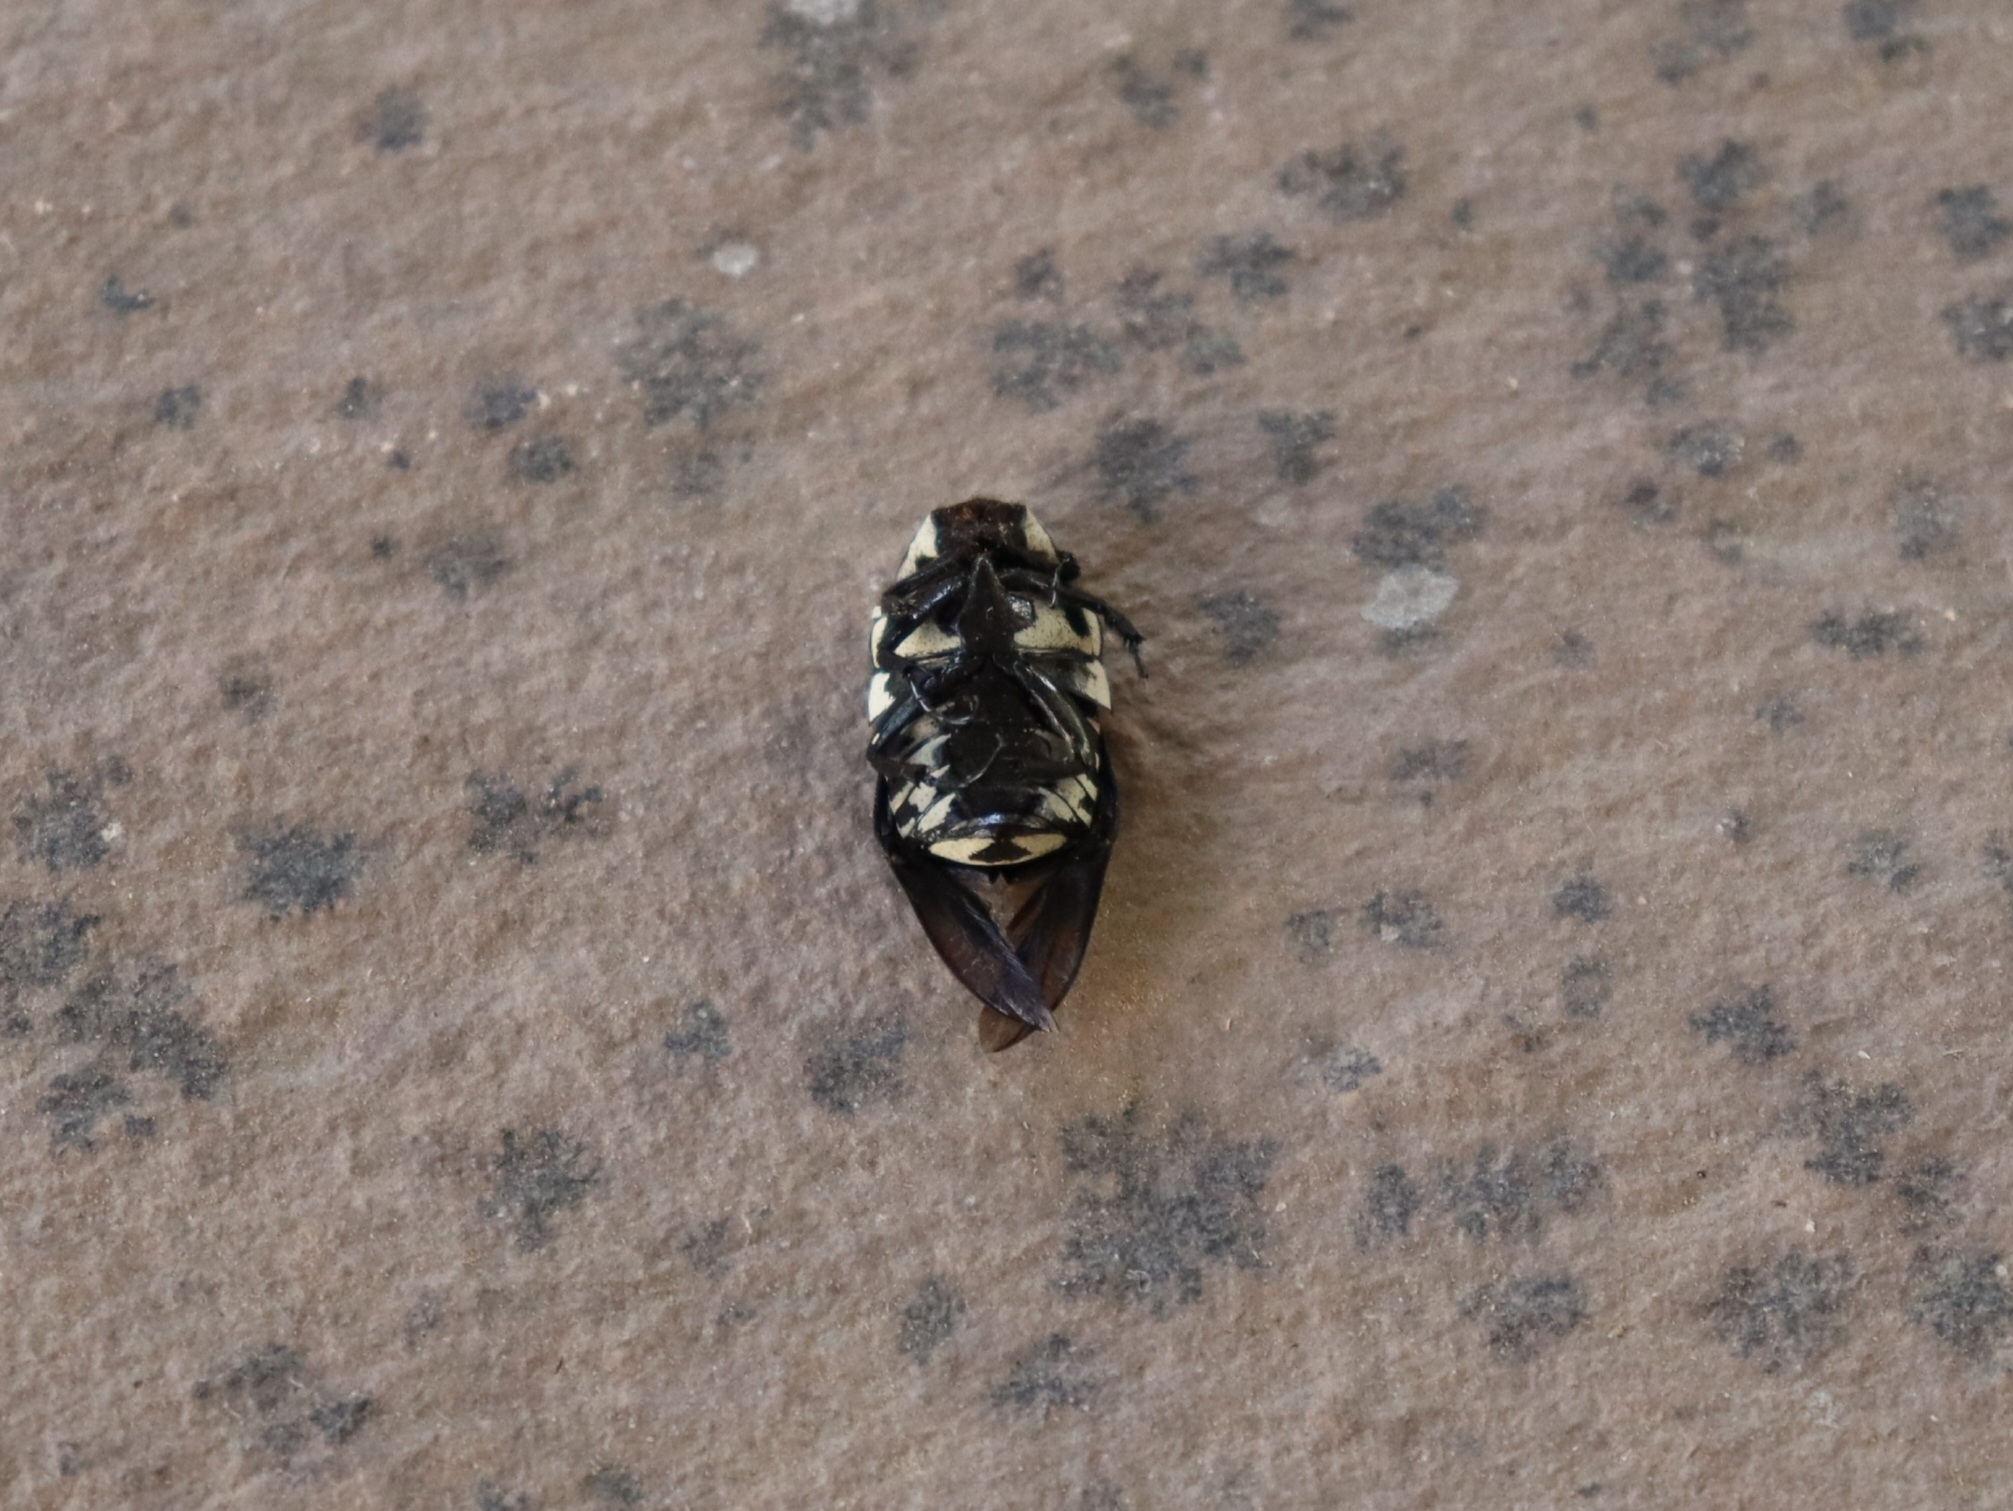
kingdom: Animalia
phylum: Arthropoda
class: Insecta
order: Coleoptera
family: Scarabaeidae
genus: Amithao
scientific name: Amithao marginicollis
